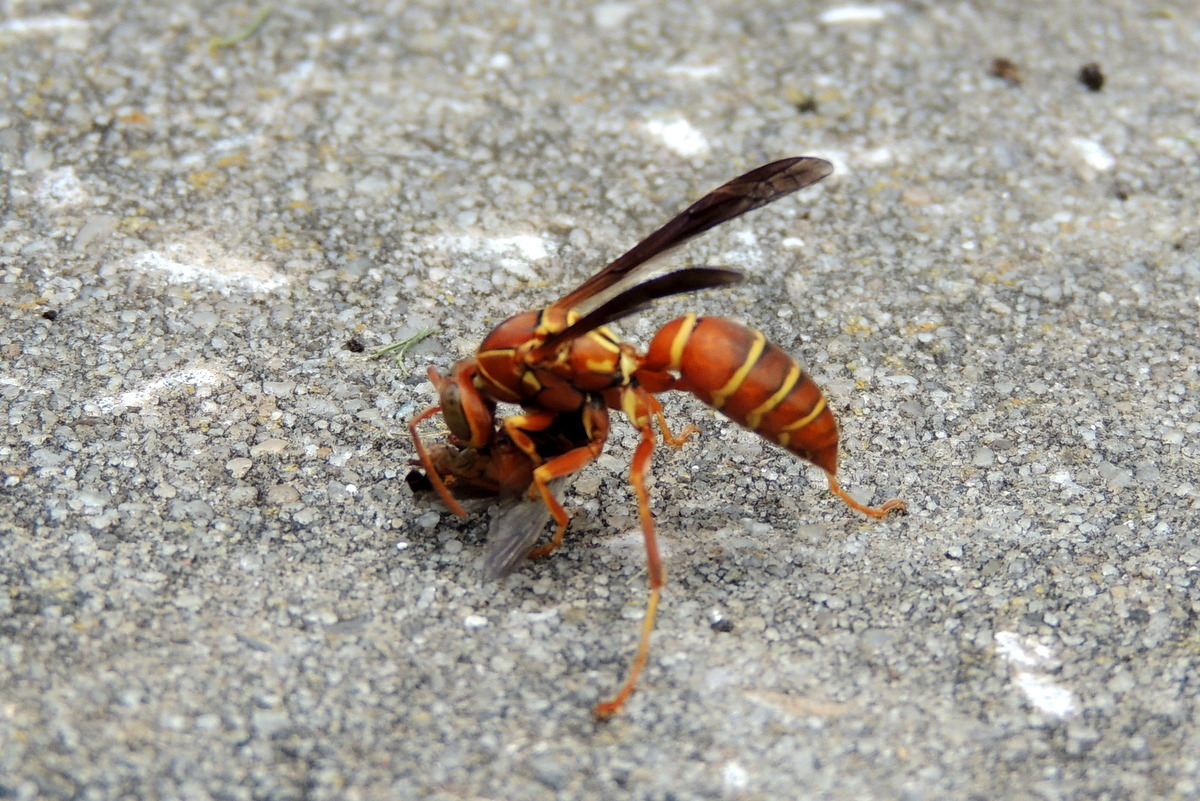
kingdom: Animalia
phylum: Arthropoda
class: Insecta
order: Hymenoptera
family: Eumenidae
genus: Polistes
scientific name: Polistes bellicosus
